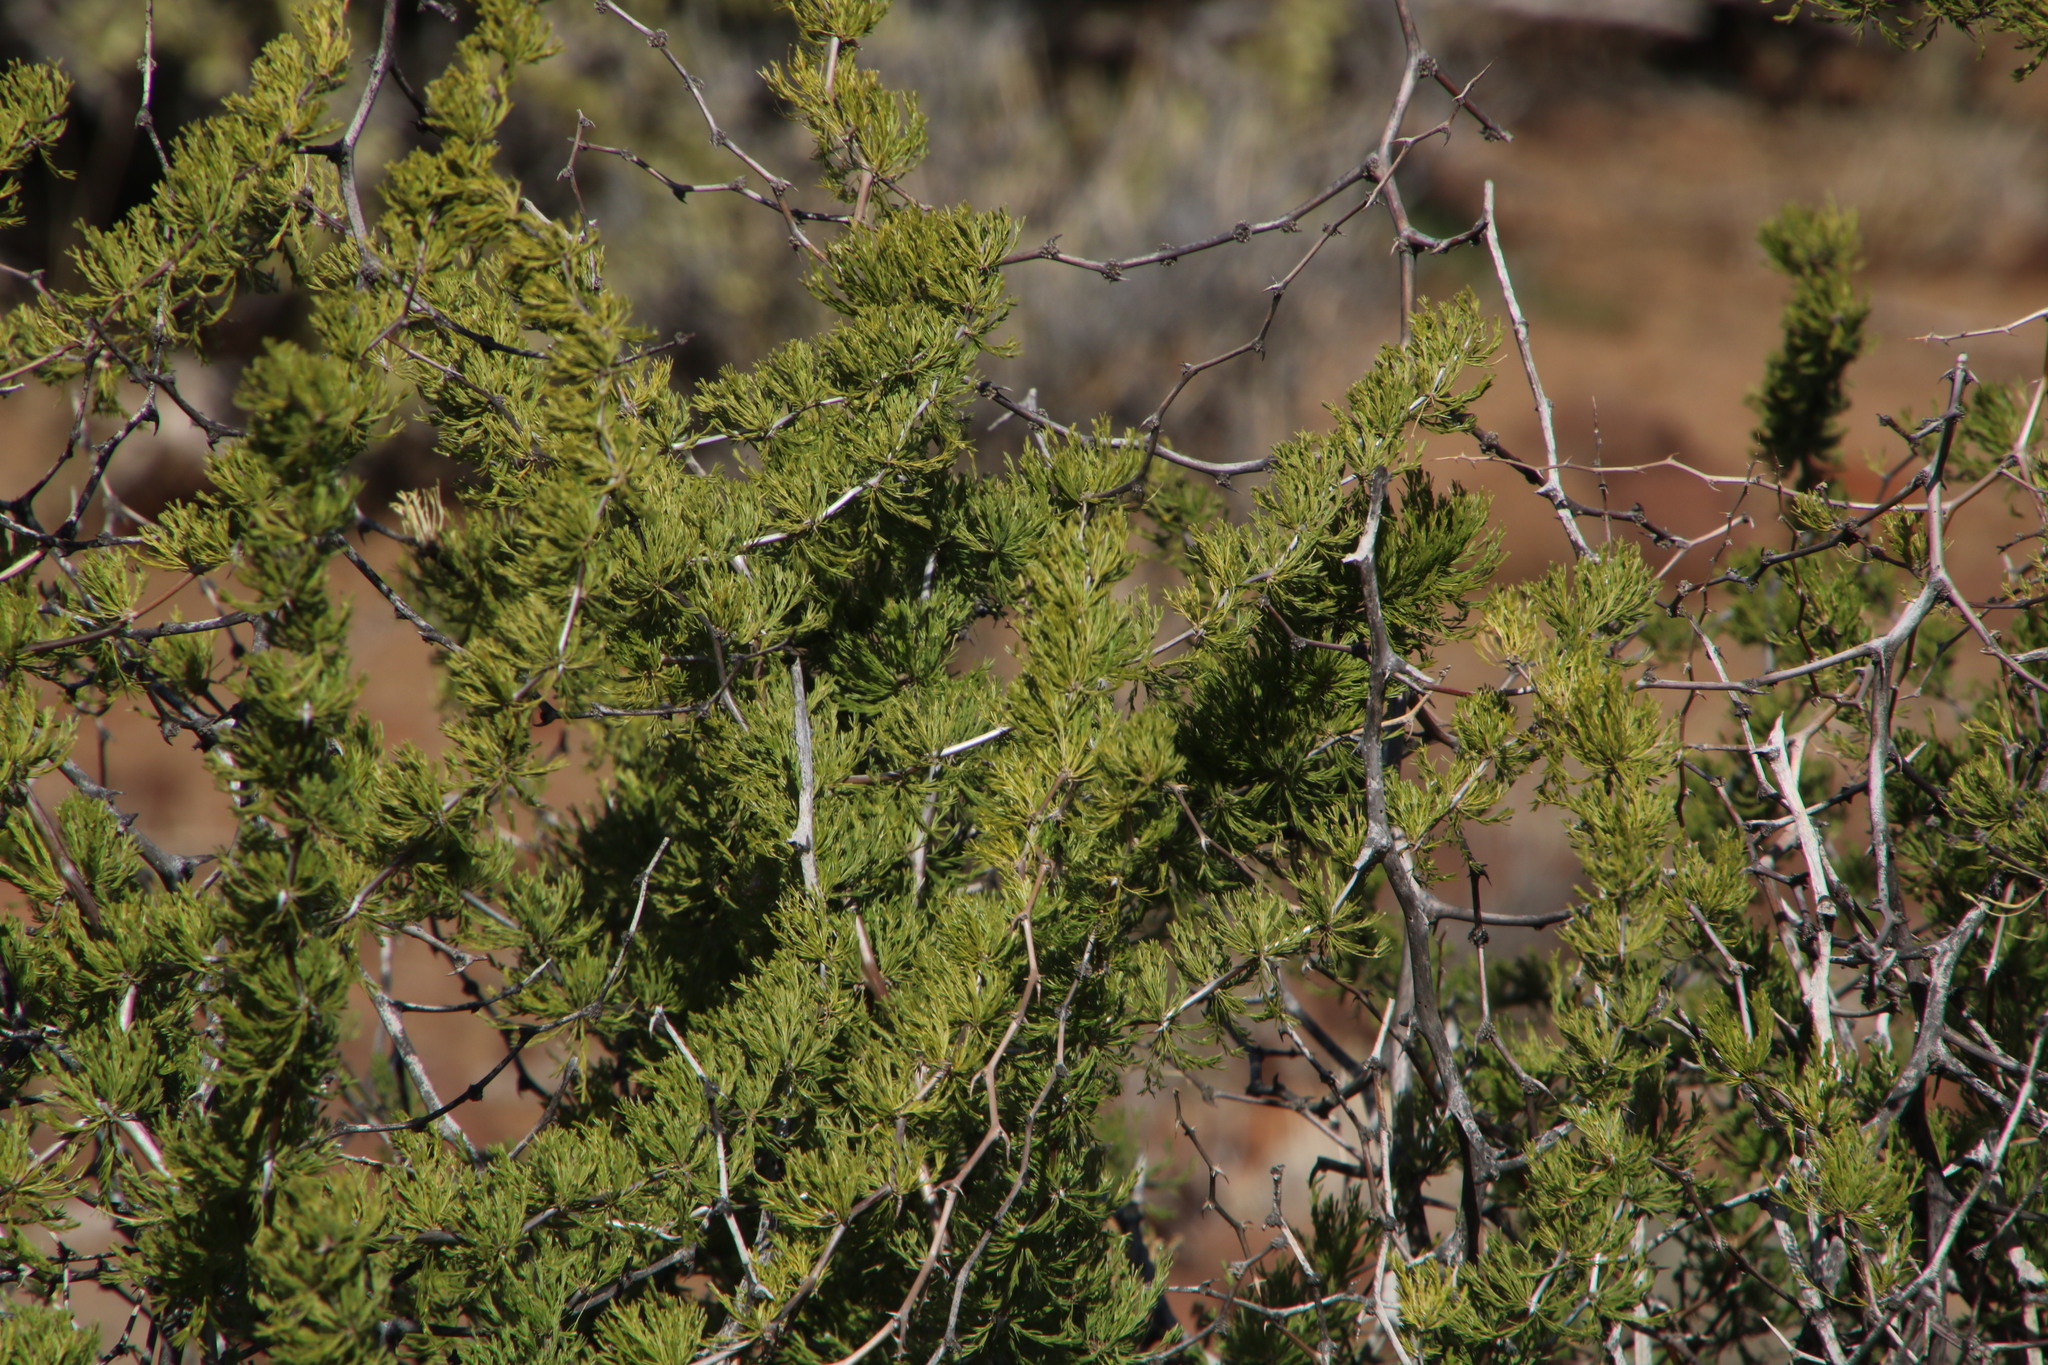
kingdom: Plantae
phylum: Tracheophyta
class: Liliopsida
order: Asparagales
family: Asparagaceae
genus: Asparagus
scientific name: Asparagus burchellii
